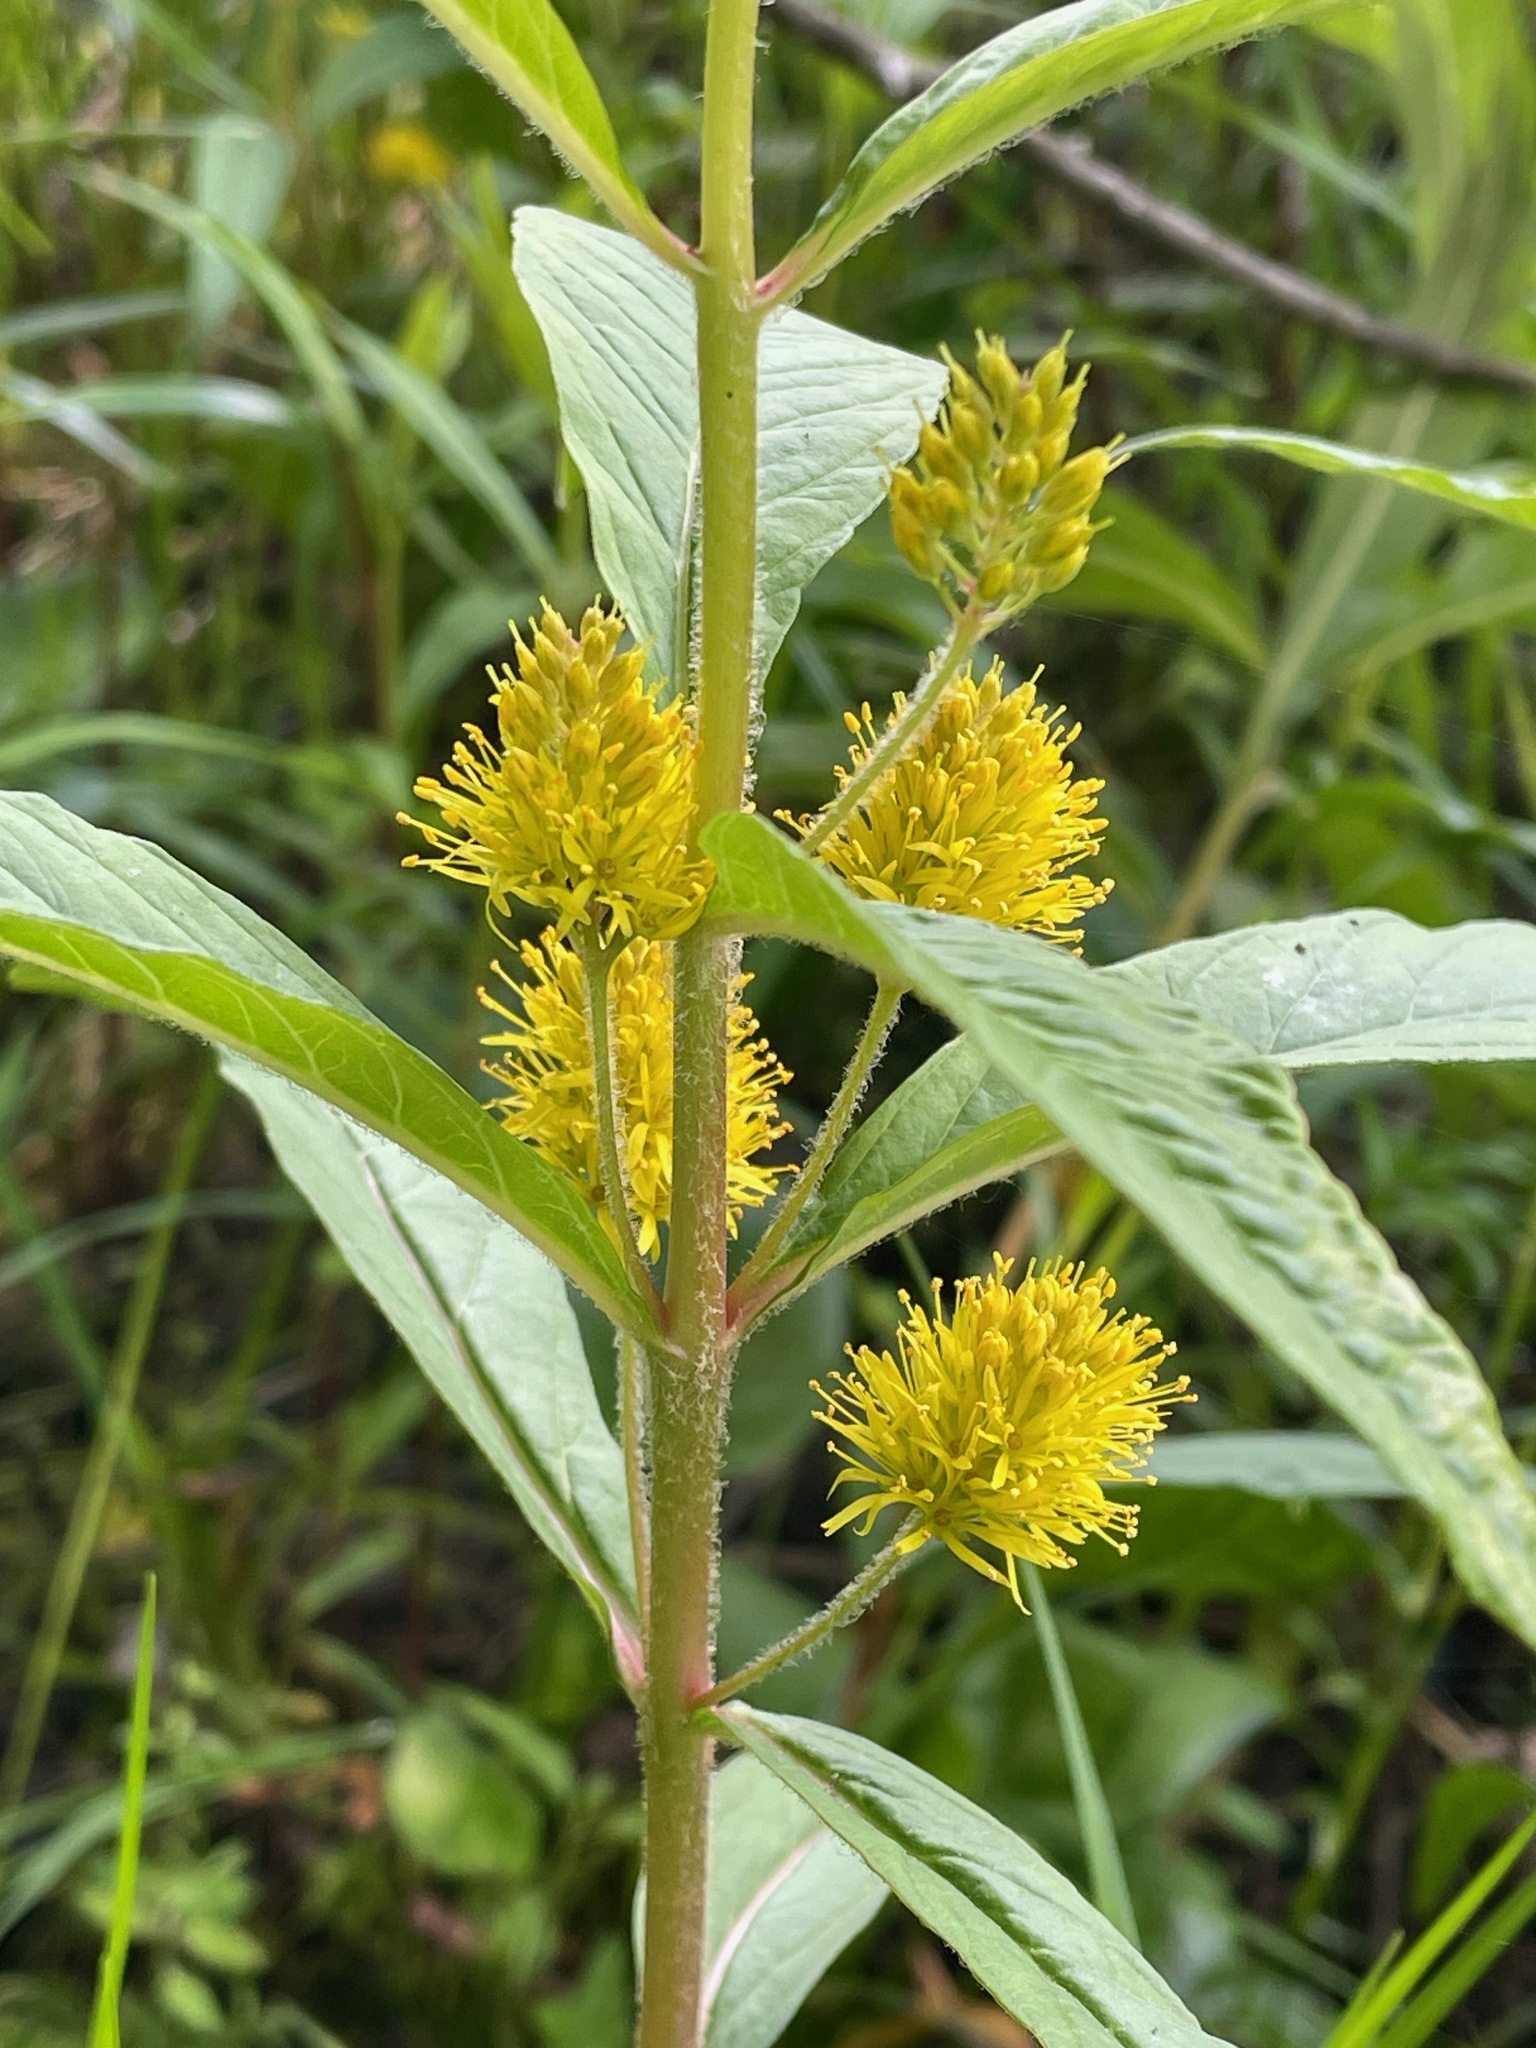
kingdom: Plantae
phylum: Tracheophyta
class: Magnoliopsida
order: Ericales
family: Primulaceae
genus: Lysimachia
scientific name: Lysimachia thyrsiflora
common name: Tufted loosestrife
